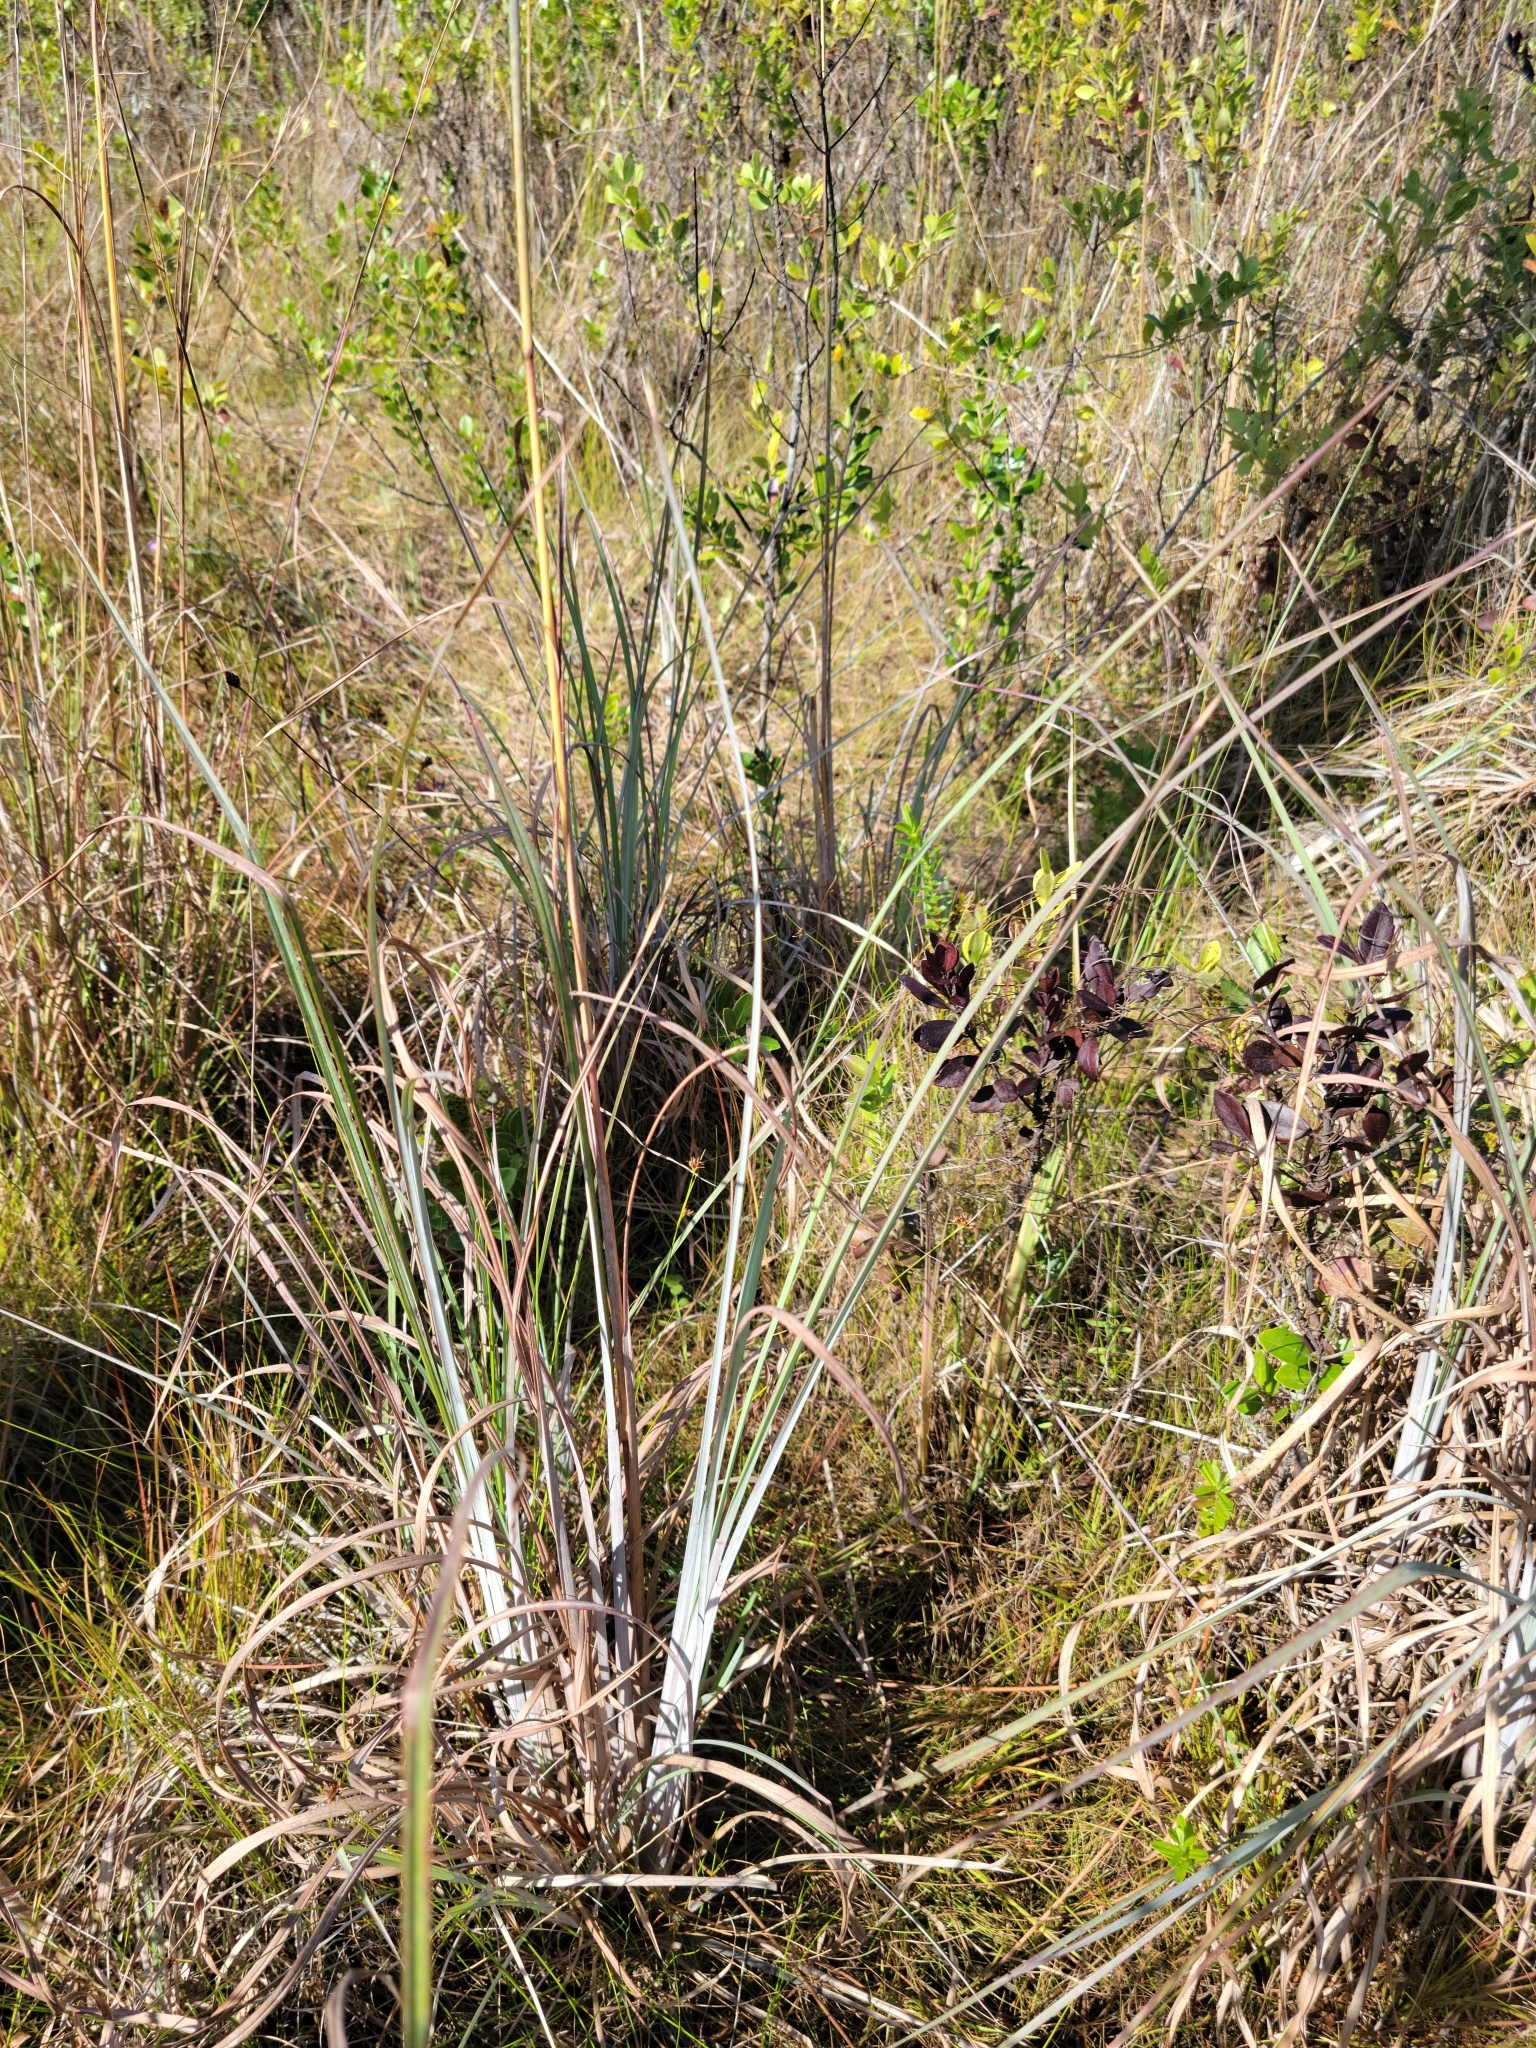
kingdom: Plantae
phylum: Tracheophyta
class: Liliopsida
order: Poales
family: Poaceae
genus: Andropogon
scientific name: Andropogon cretaceus
